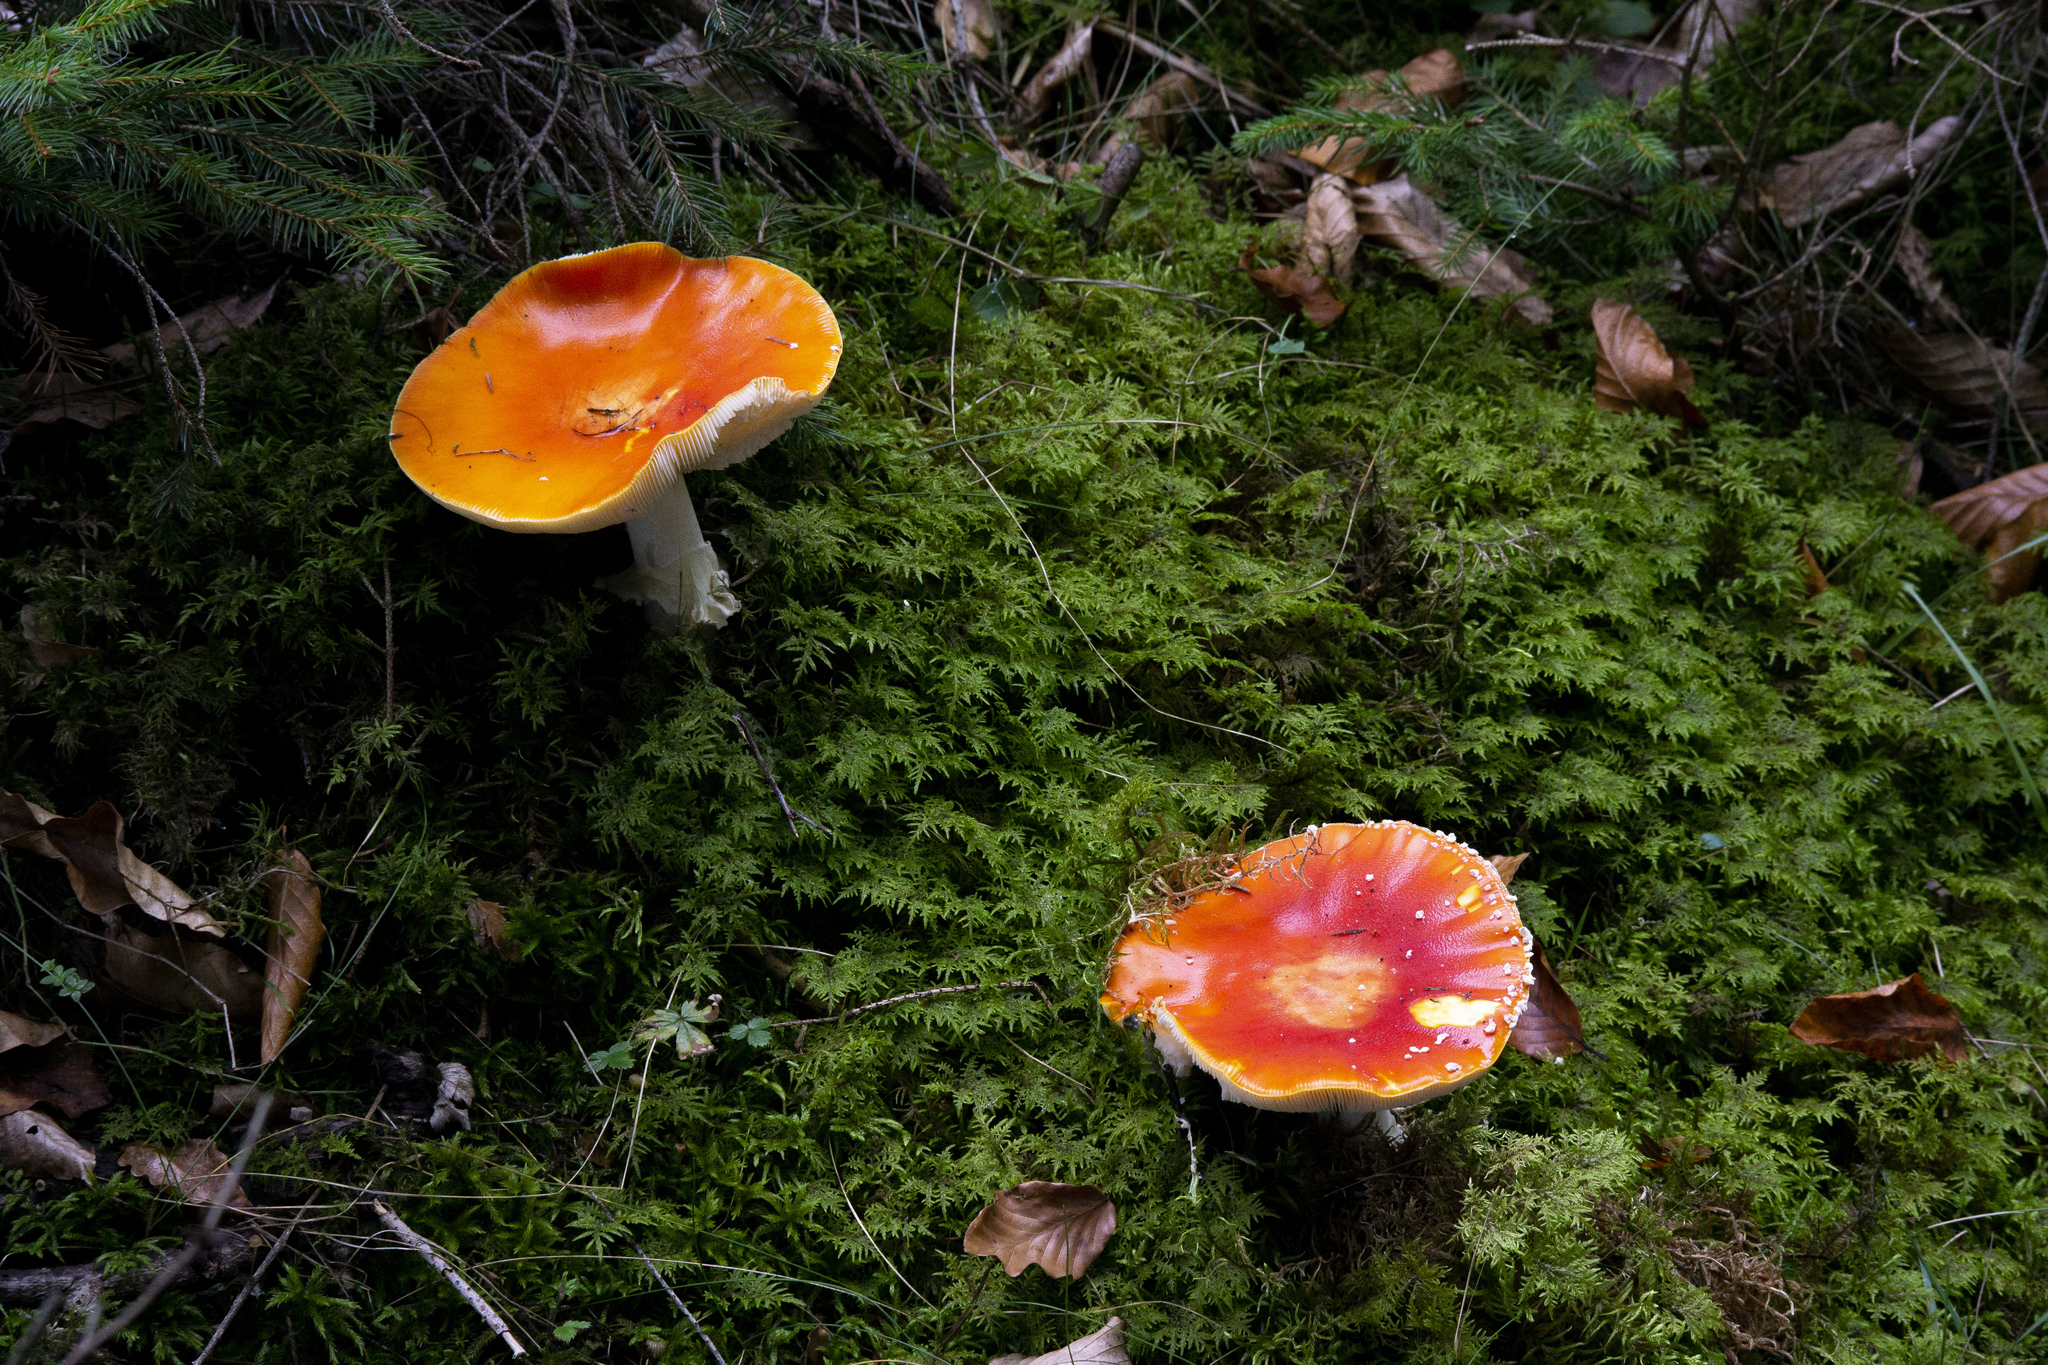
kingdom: Fungi
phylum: Basidiomycota
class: Agaricomycetes
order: Agaricales
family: Amanitaceae
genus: Amanita
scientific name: Amanita muscaria
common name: Fly agaric
